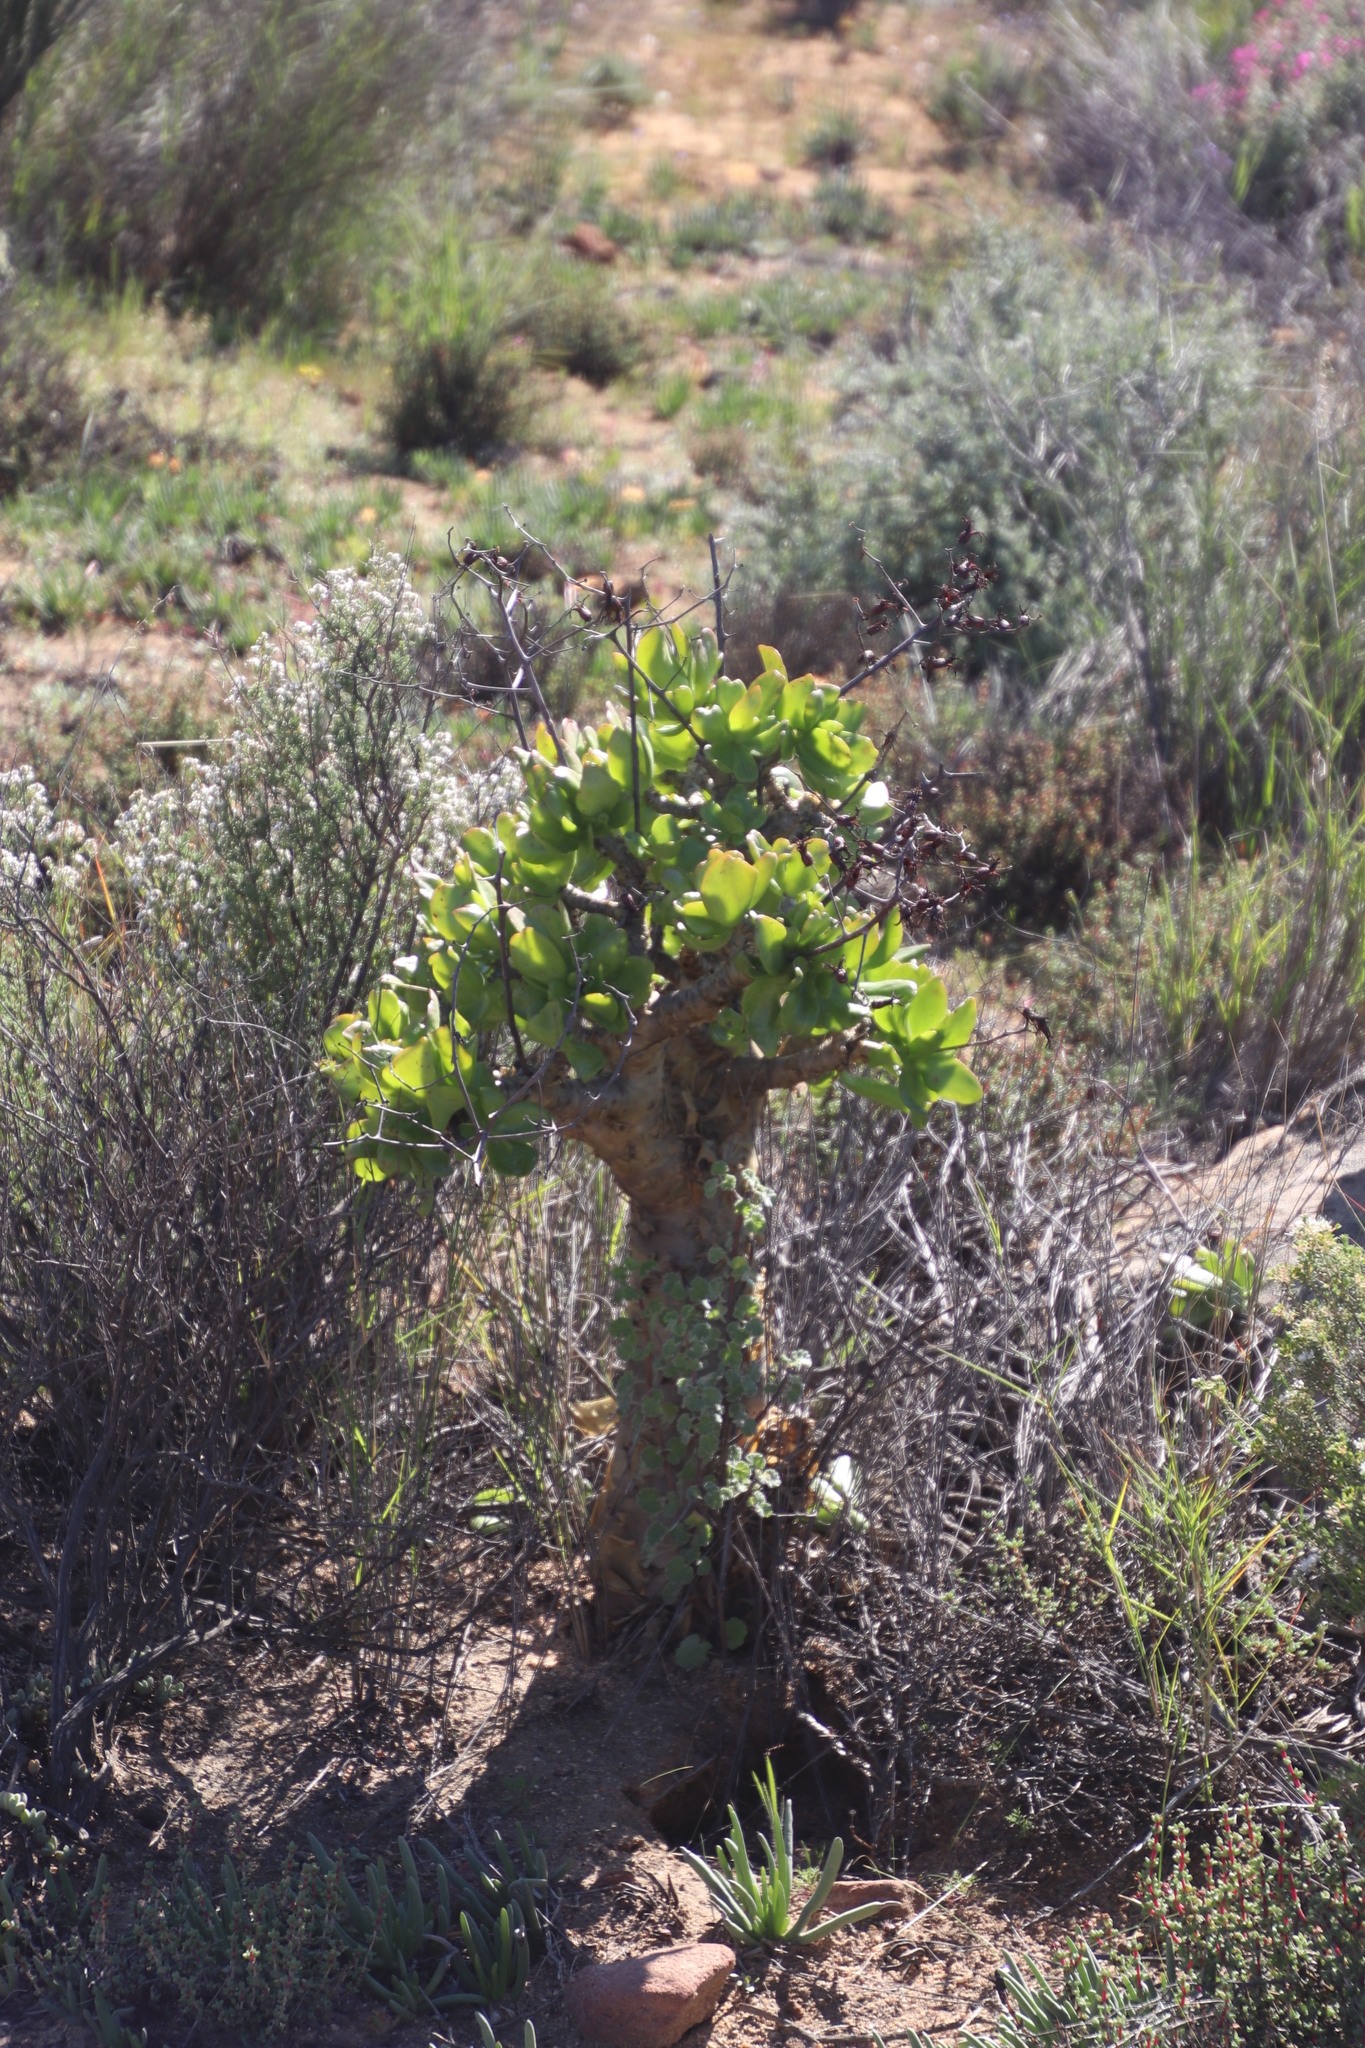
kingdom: Plantae
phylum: Tracheophyta
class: Magnoliopsida
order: Saxifragales
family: Crassulaceae
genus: Tylecodon
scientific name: Tylecodon paniculatus
